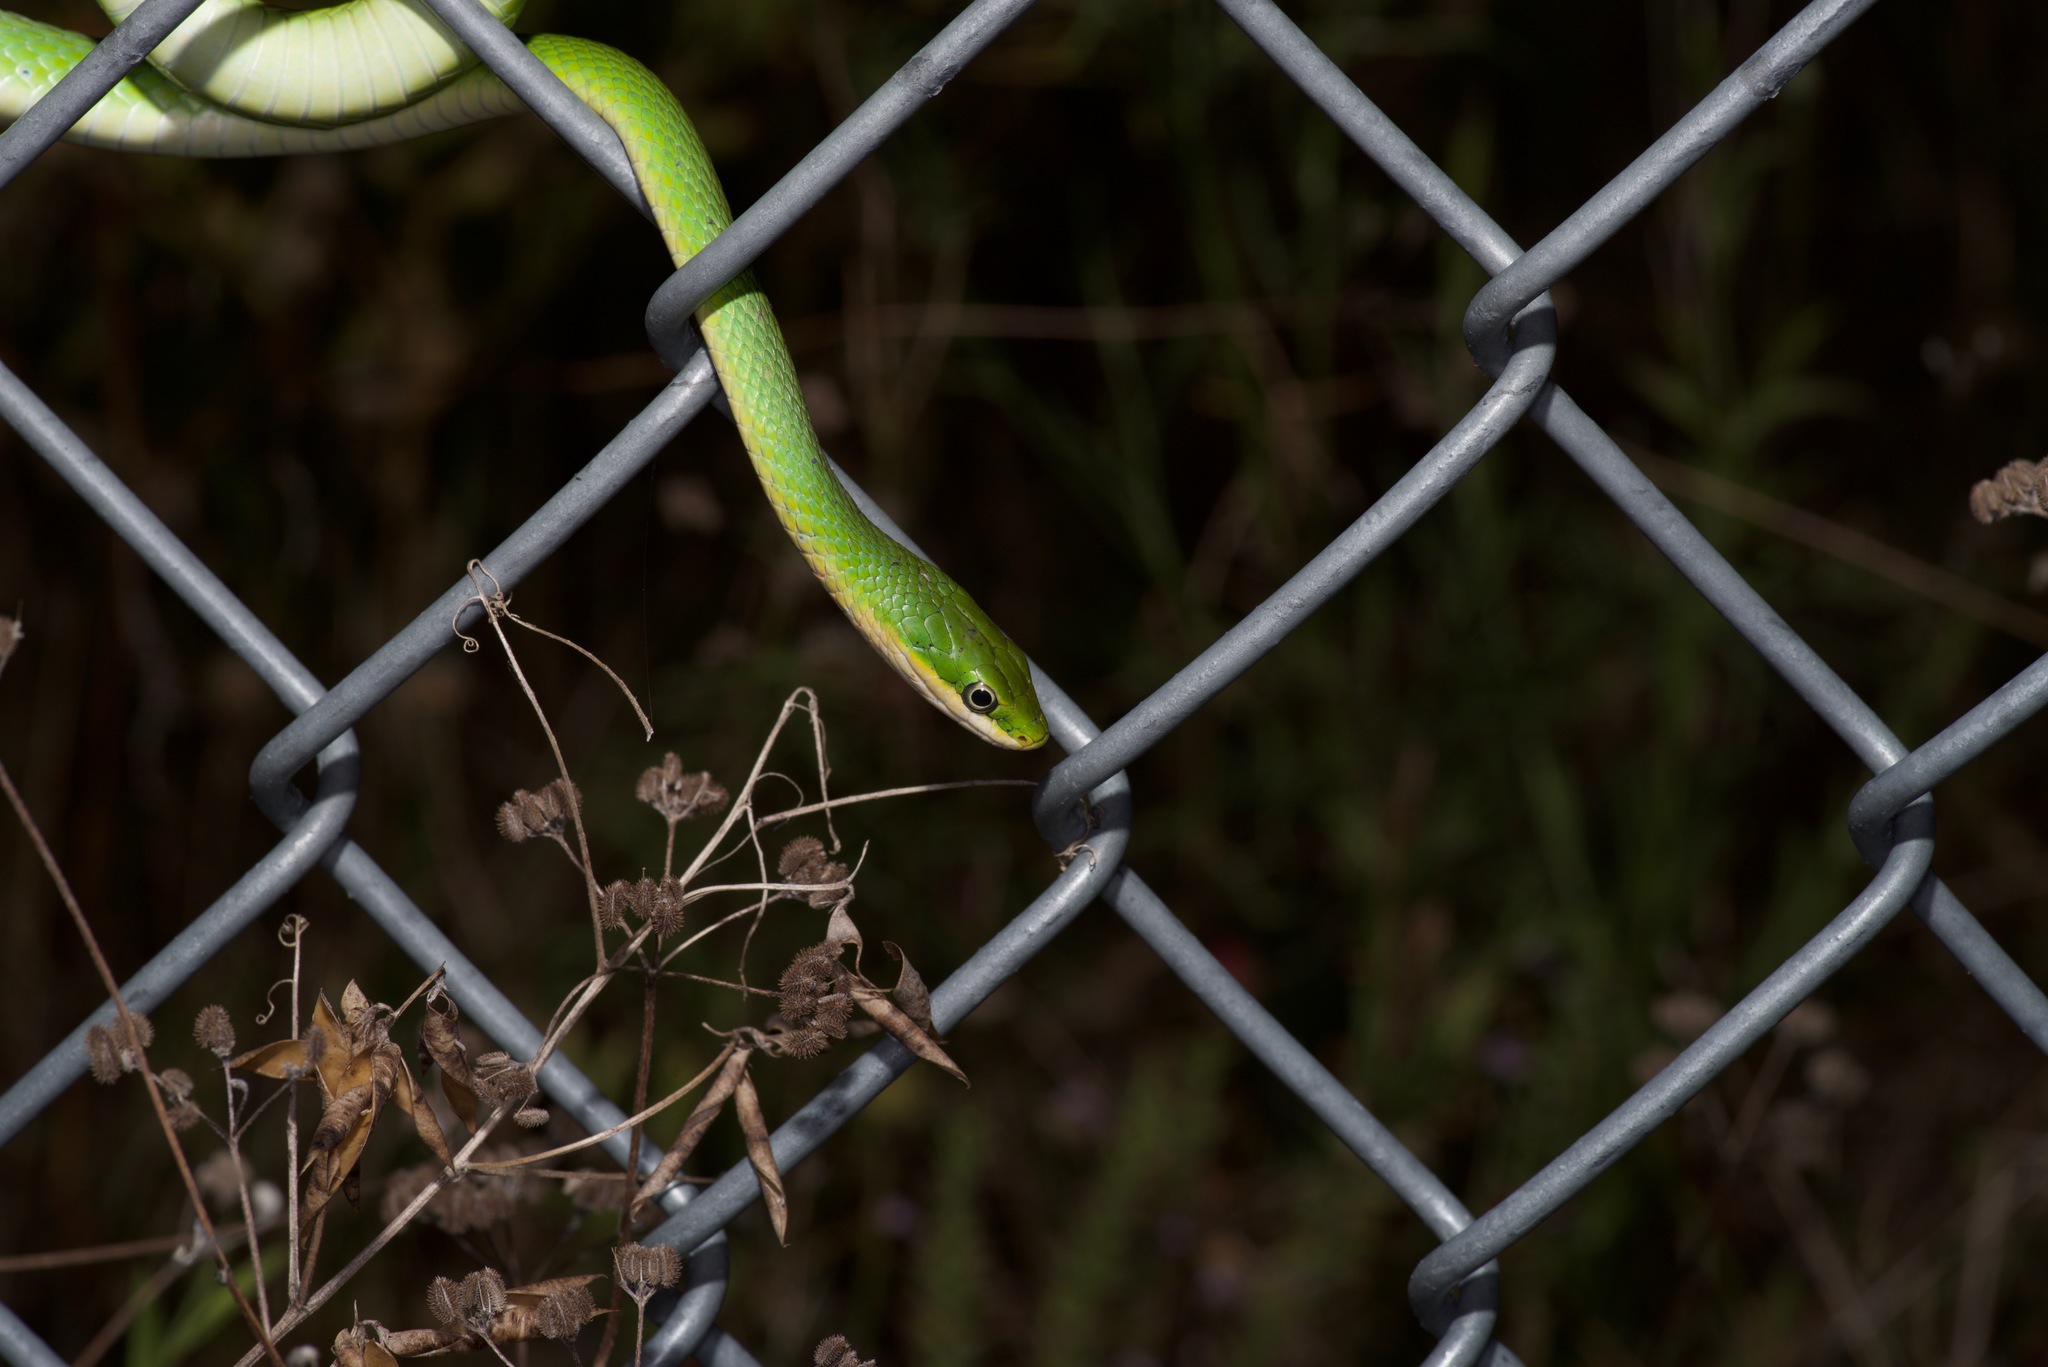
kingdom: Animalia
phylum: Chordata
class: Squamata
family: Colubridae
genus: Opheodrys
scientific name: Opheodrys aestivus
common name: Rough greensnake
